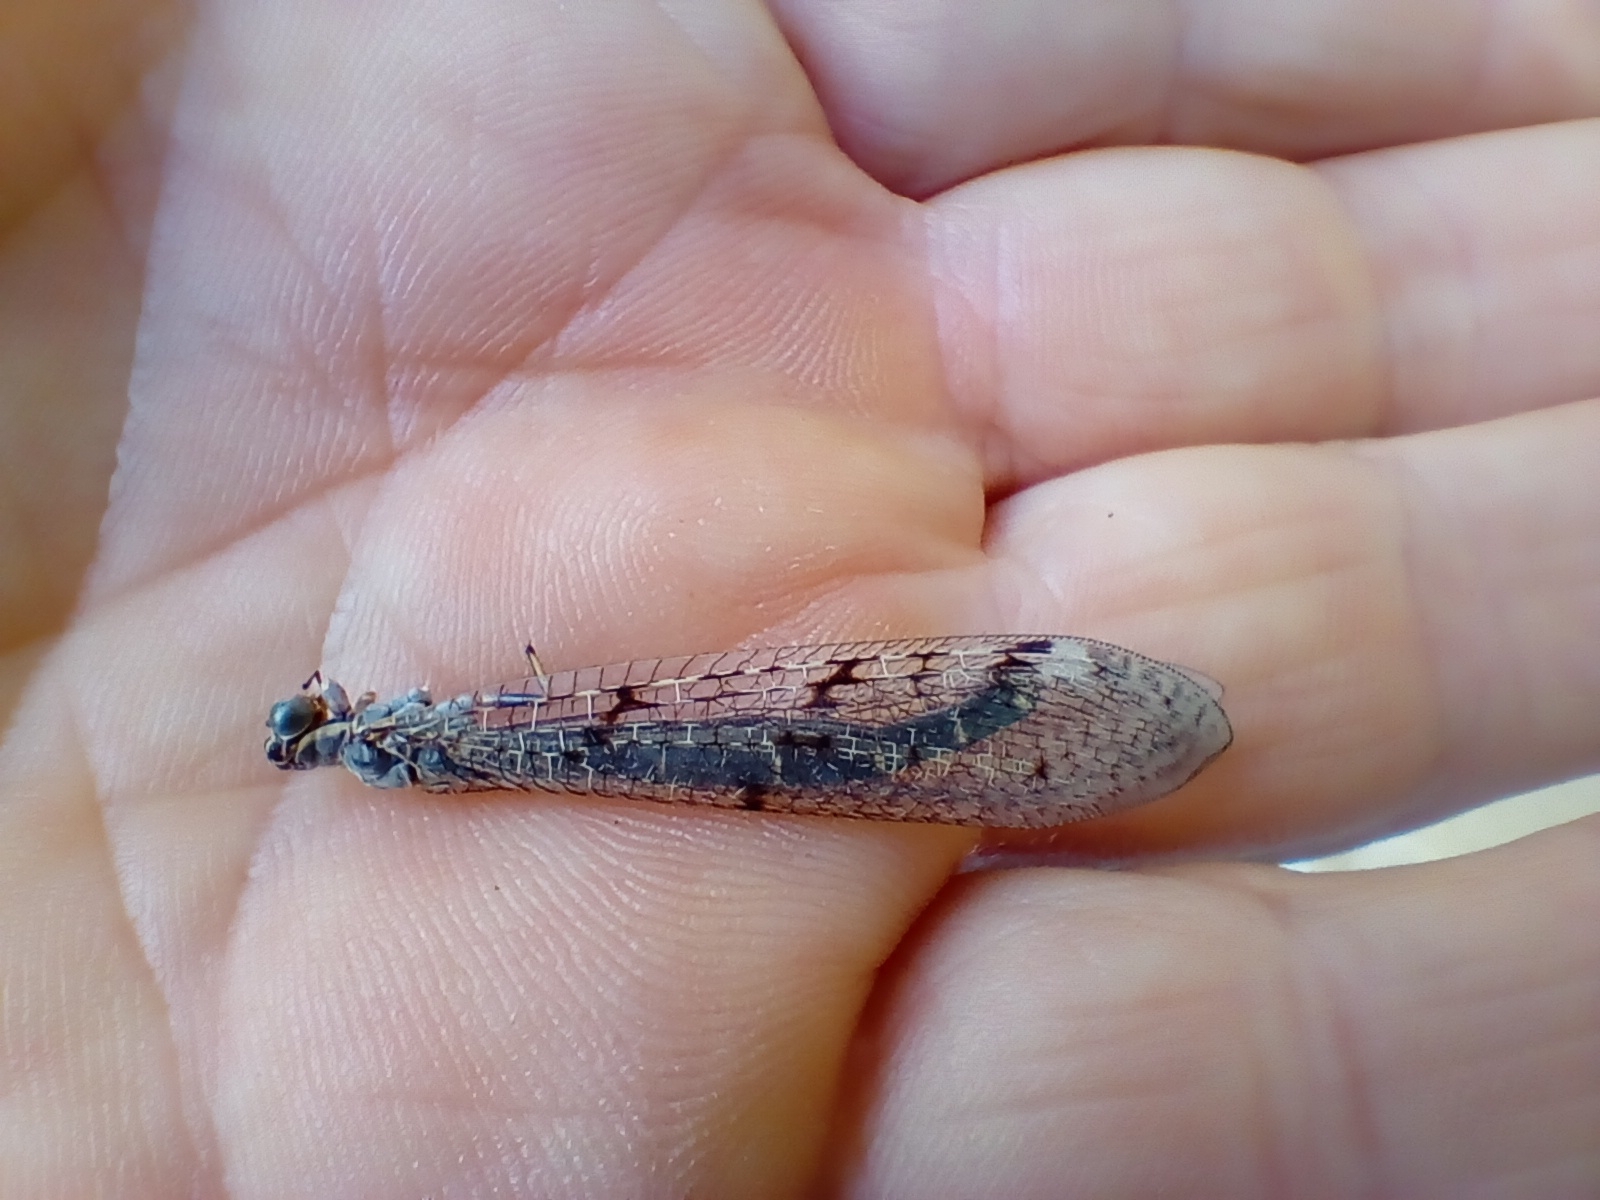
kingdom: Animalia
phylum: Arthropoda
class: Insecta
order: Neuroptera
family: Myrmeleontidae
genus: Euroleon
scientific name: Euroleon nostras
